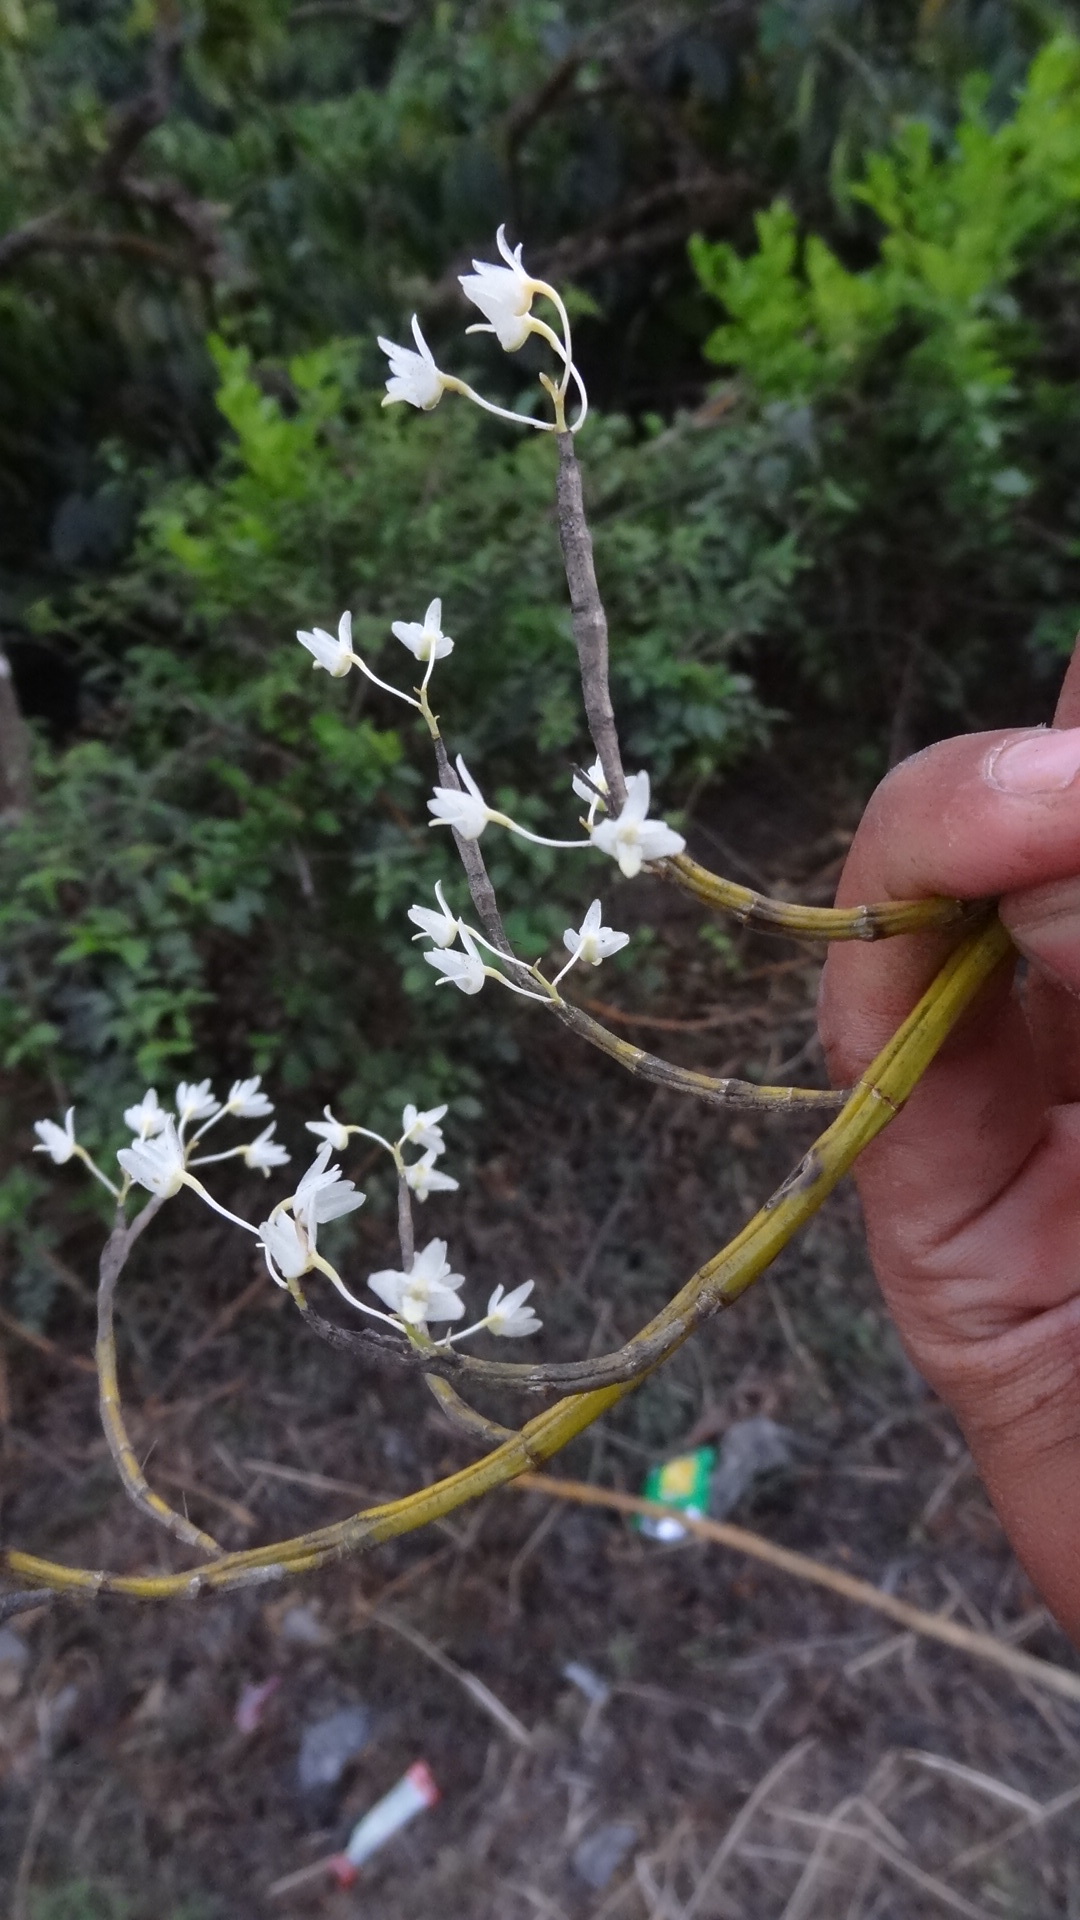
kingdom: Plantae
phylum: Tracheophyta
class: Liliopsida
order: Asparagales
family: Orchidaceae
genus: Dendrobium
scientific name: Dendrobium herbaceum
